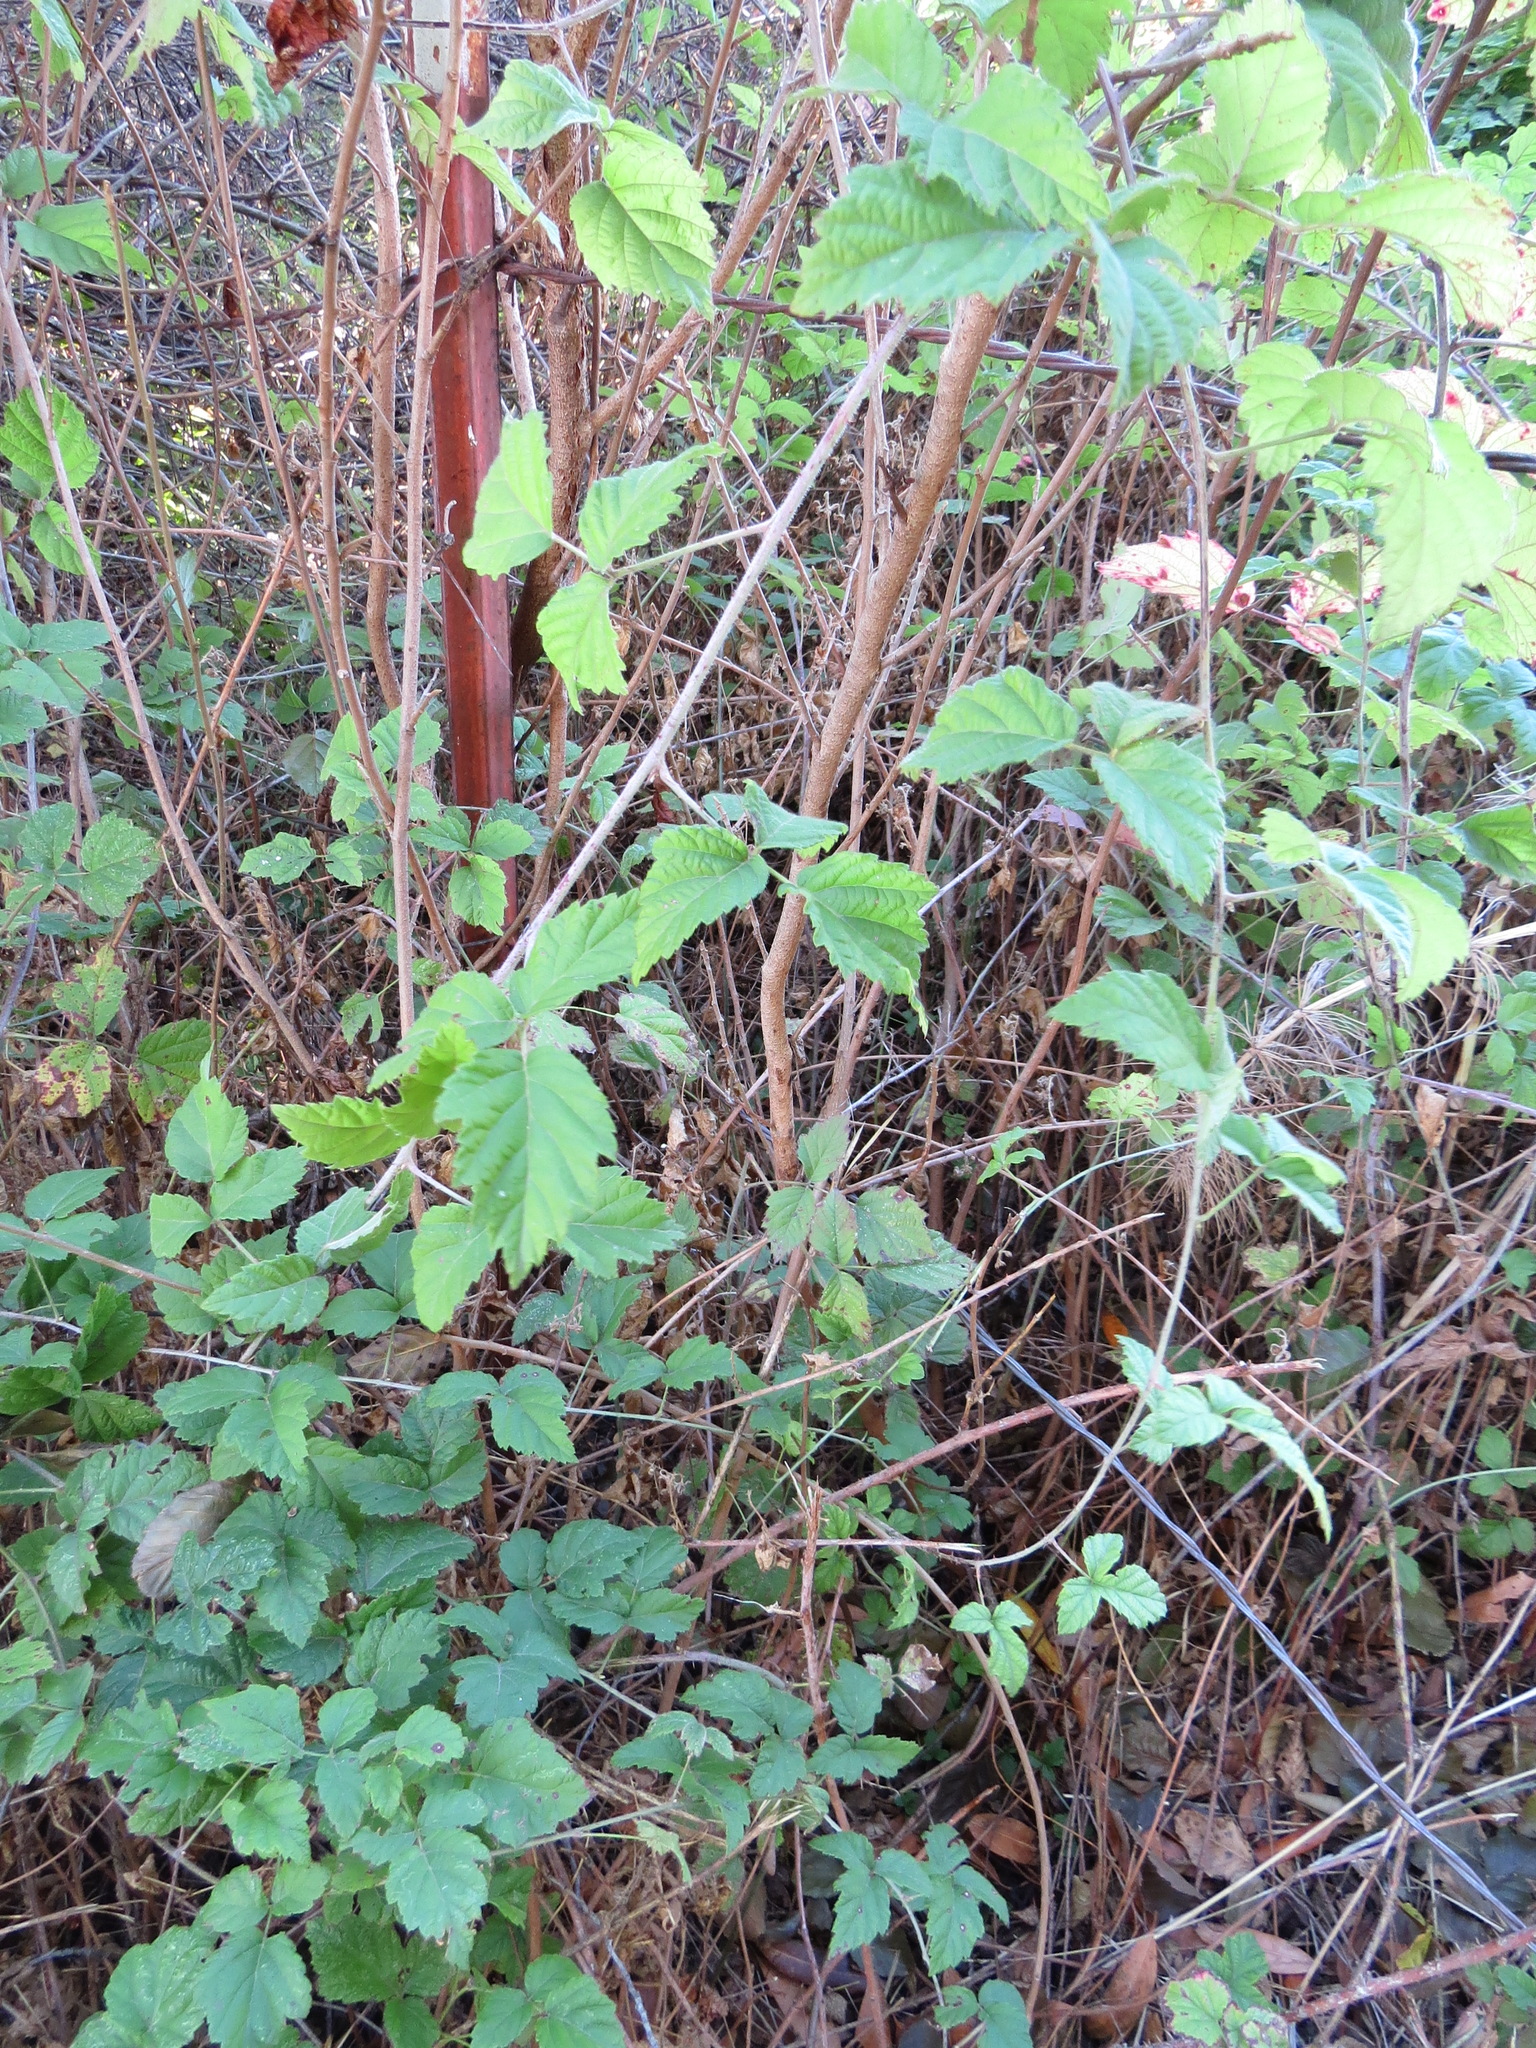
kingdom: Plantae
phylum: Tracheophyta
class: Magnoliopsida
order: Rosales
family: Rosaceae
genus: Rubus
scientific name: Rubus ursinus
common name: Pacific blackberry
